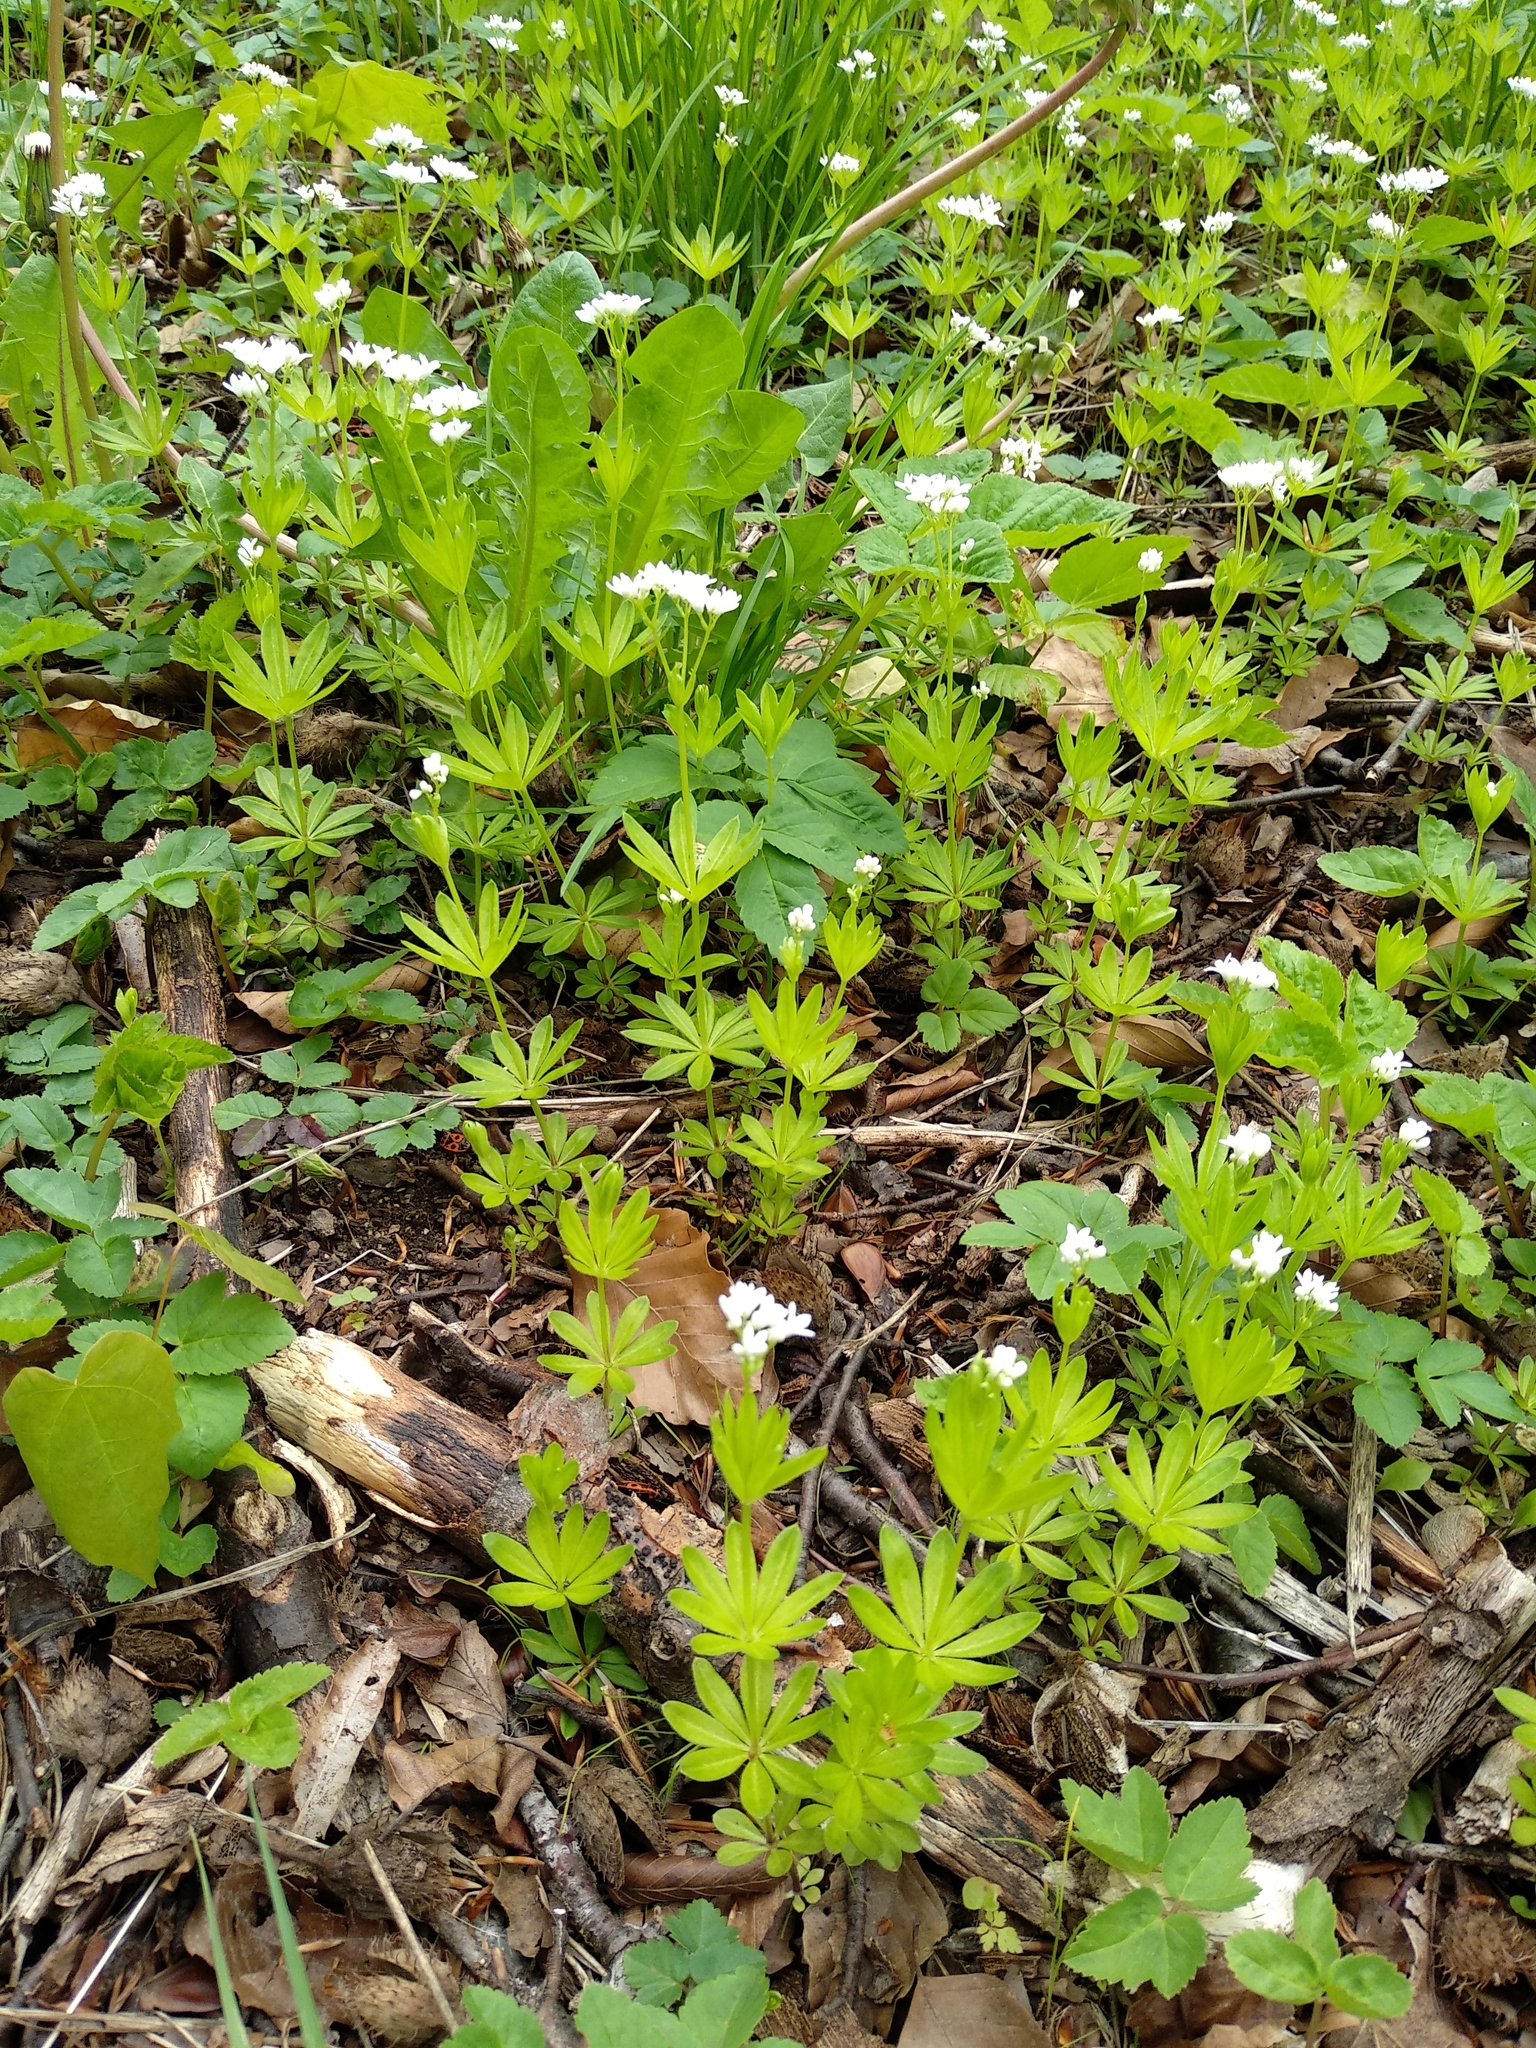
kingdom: Plantae
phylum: Tracheophyta
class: Magnoliopsida
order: Gentianales
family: Rubiaceae
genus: Galium
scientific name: Galium odoratum
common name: Sweet woodruff
